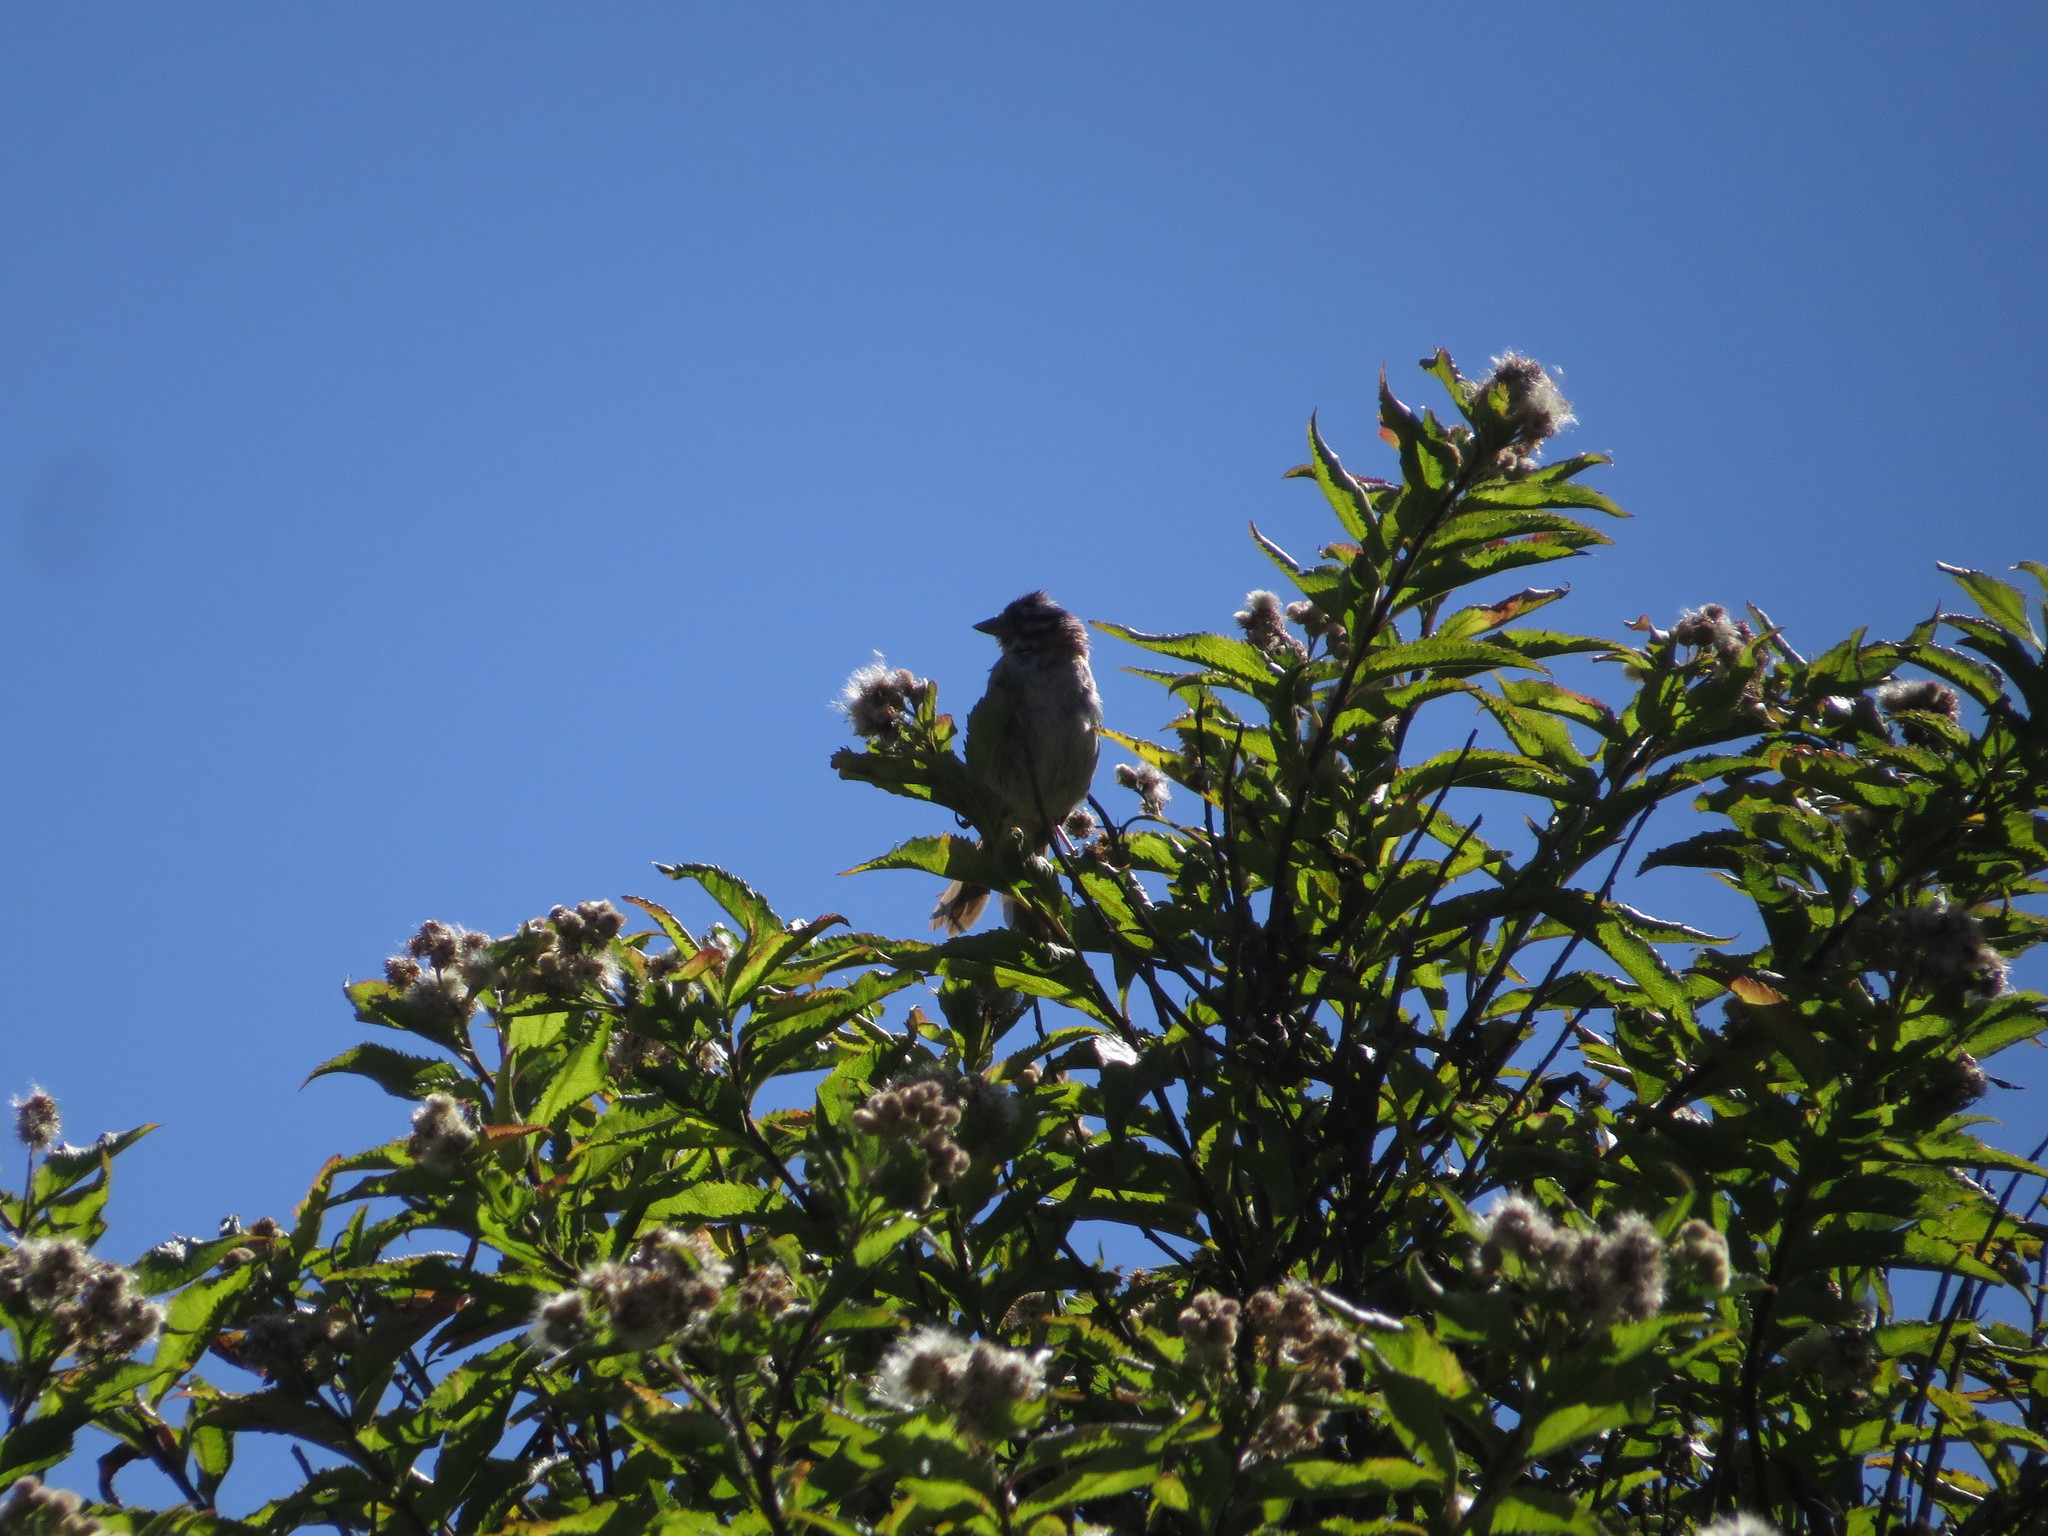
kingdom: Animalia
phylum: Chordata
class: Aves
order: Passeriformes
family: Passerellidae
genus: Zonotrichia
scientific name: Zonotrichia capensis
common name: Rufous-collared sparrow
